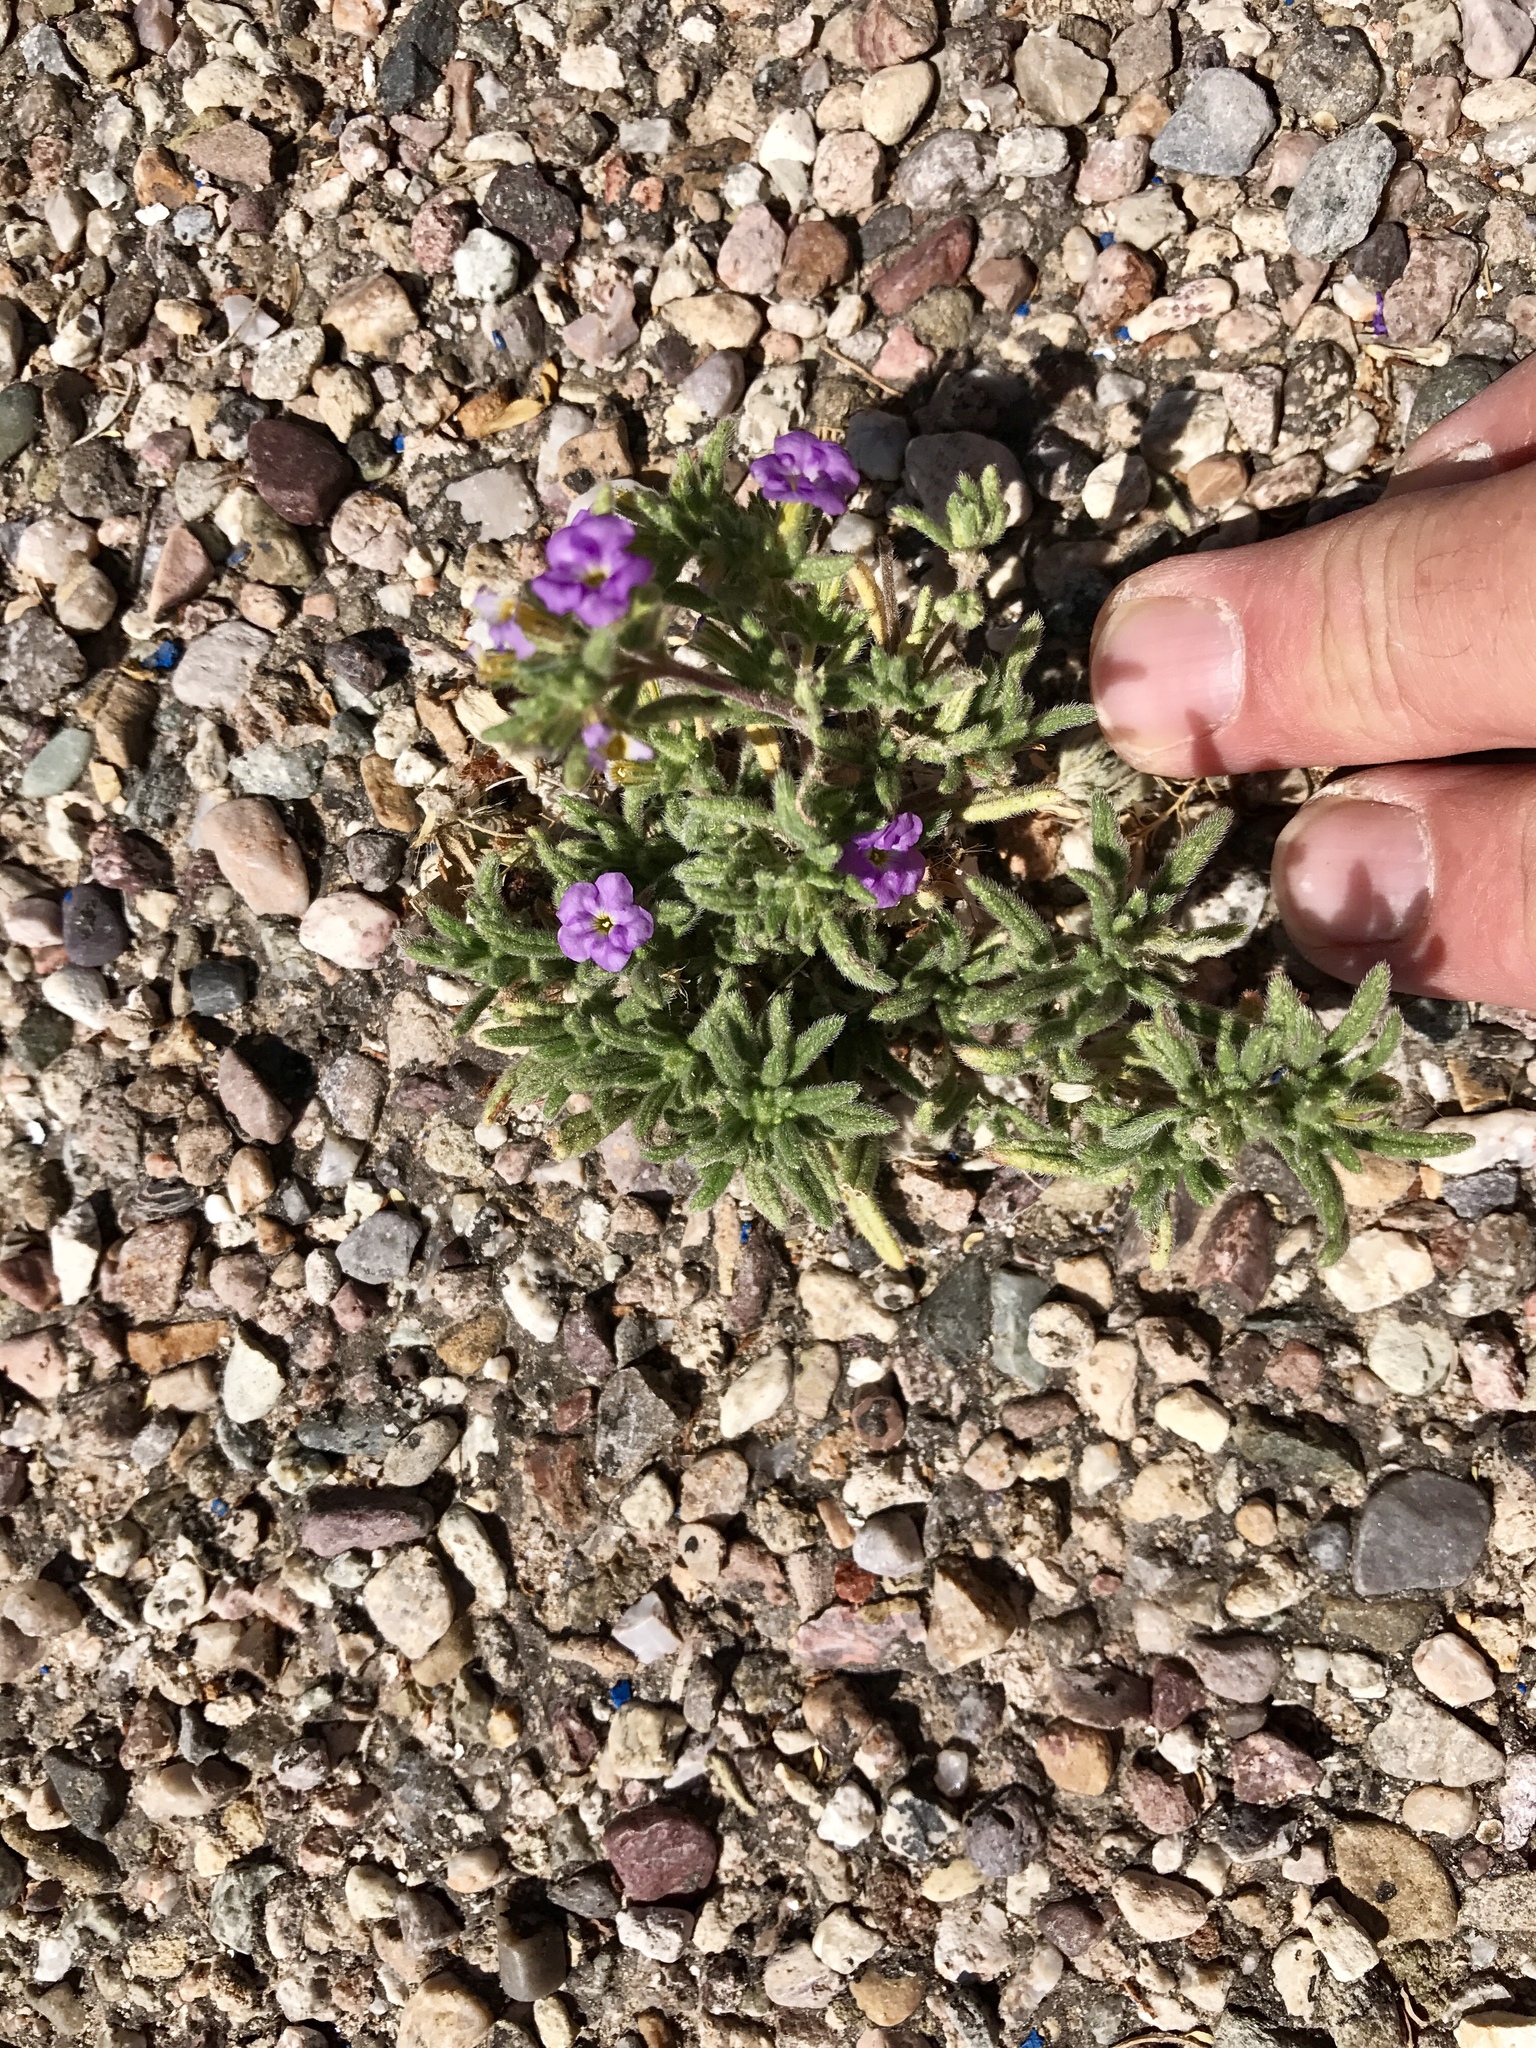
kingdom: Plantae
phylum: Tracheophyta
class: Magnoliopsida
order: Boraginales
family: Namaceae
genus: Nama
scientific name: Nama demissa
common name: Leafy nama
